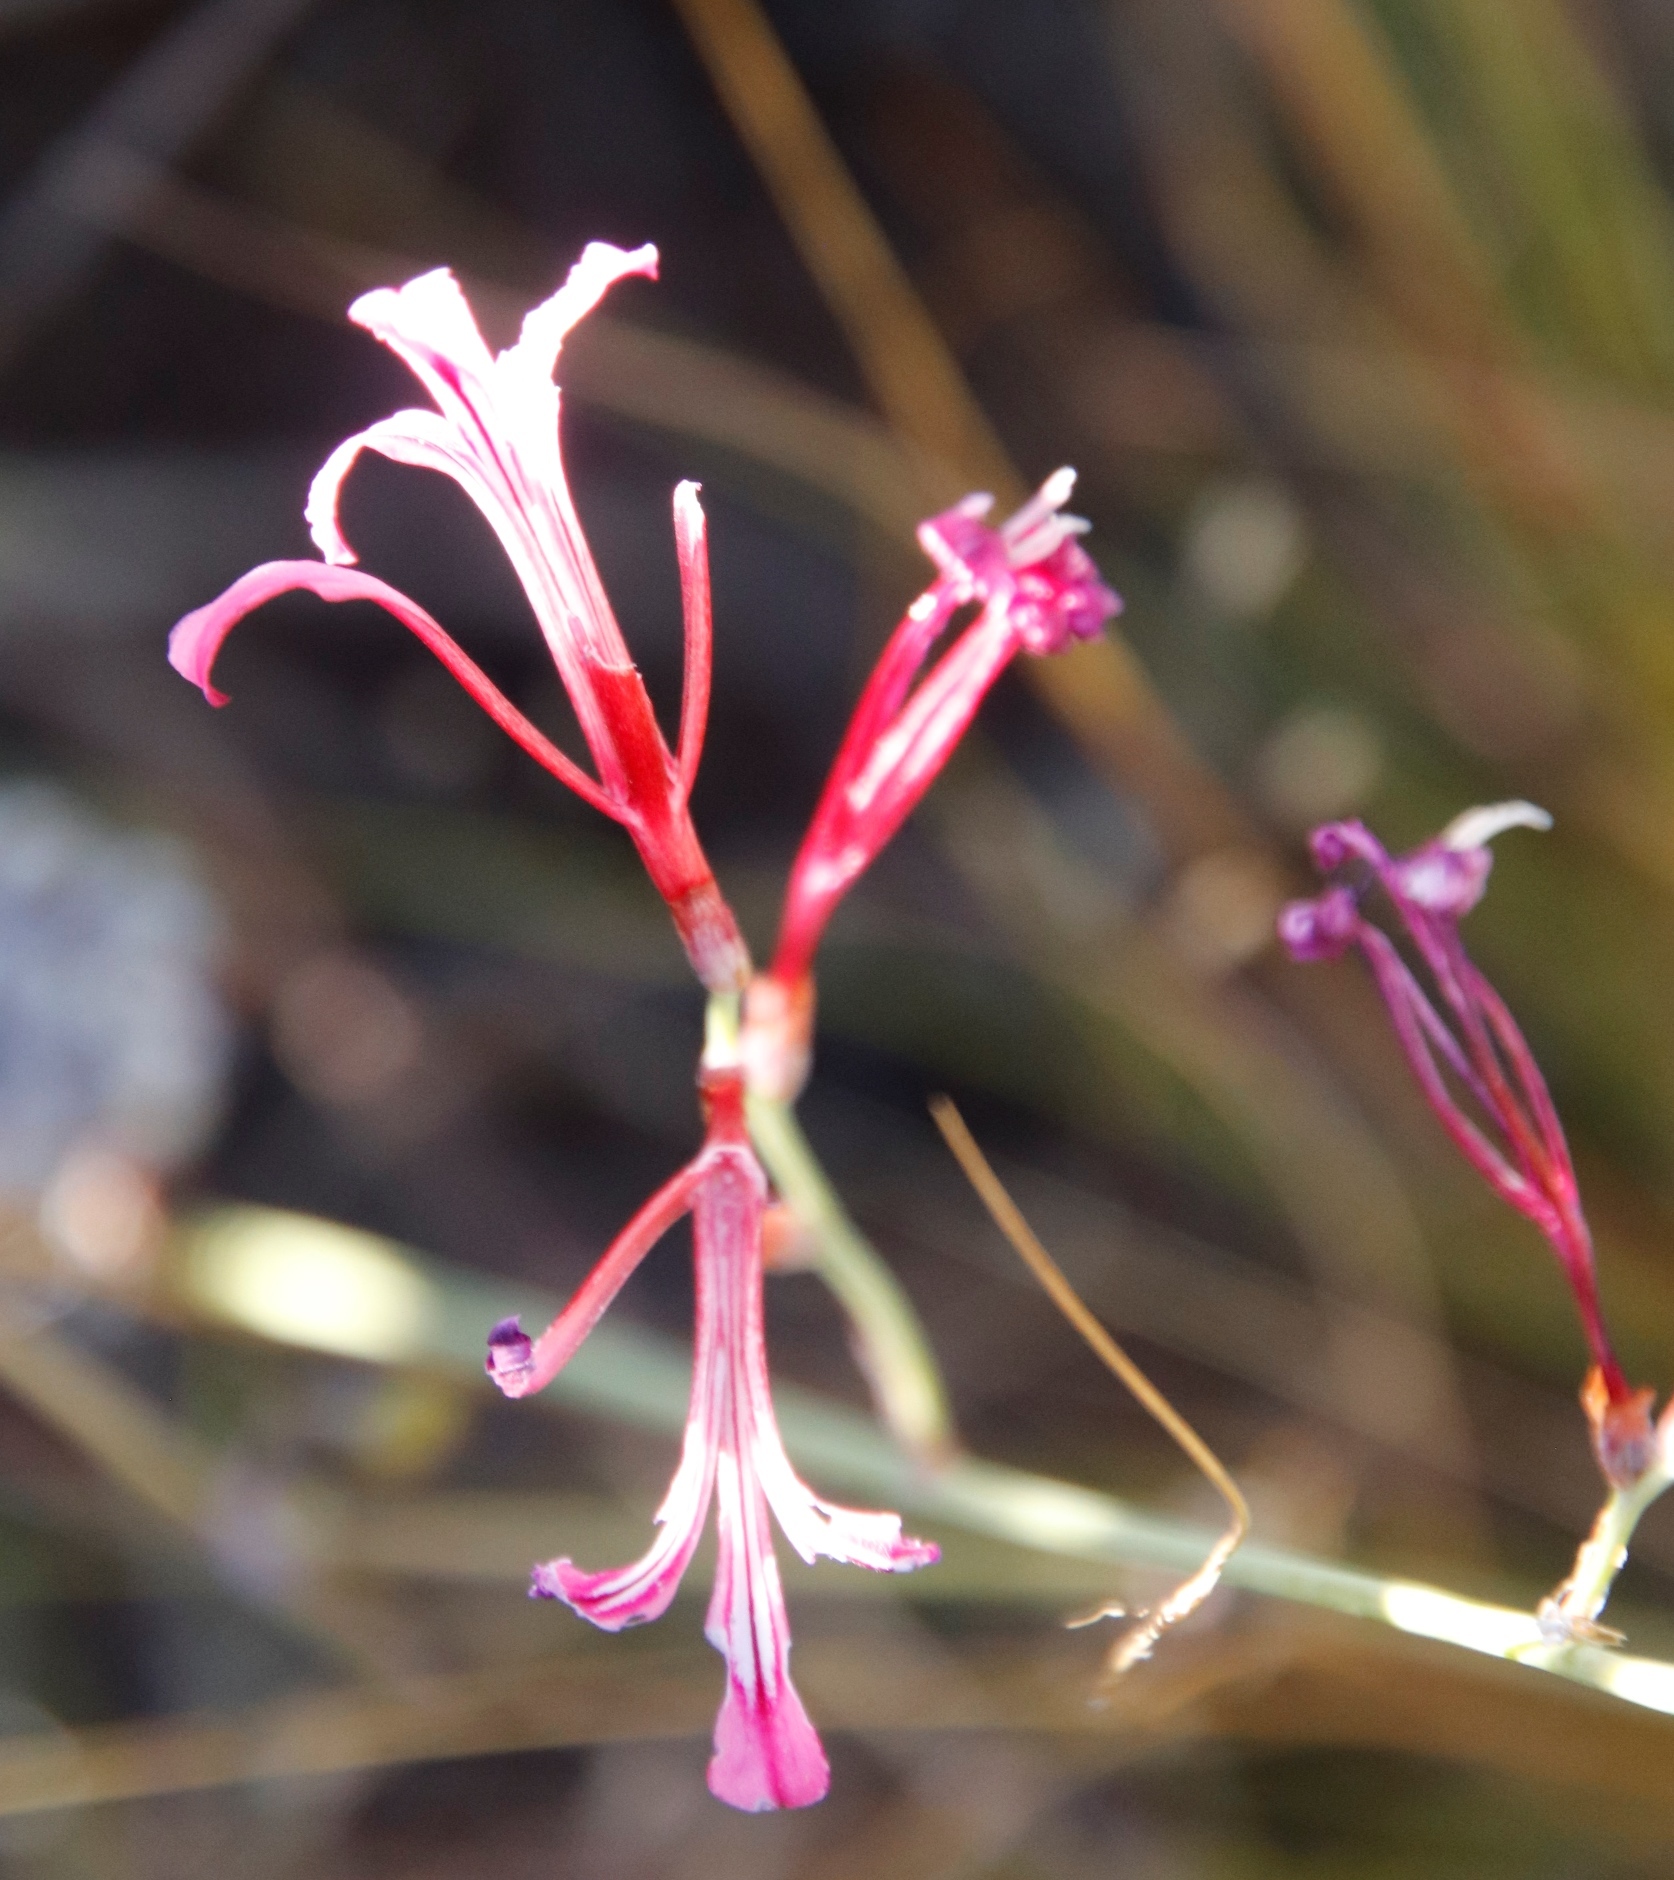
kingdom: Plantae
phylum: Tracheophyta
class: Liliopsida
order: Asparagales
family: Iridaceae
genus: Tritoniopsis
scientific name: Tritoniopsis ramosa
